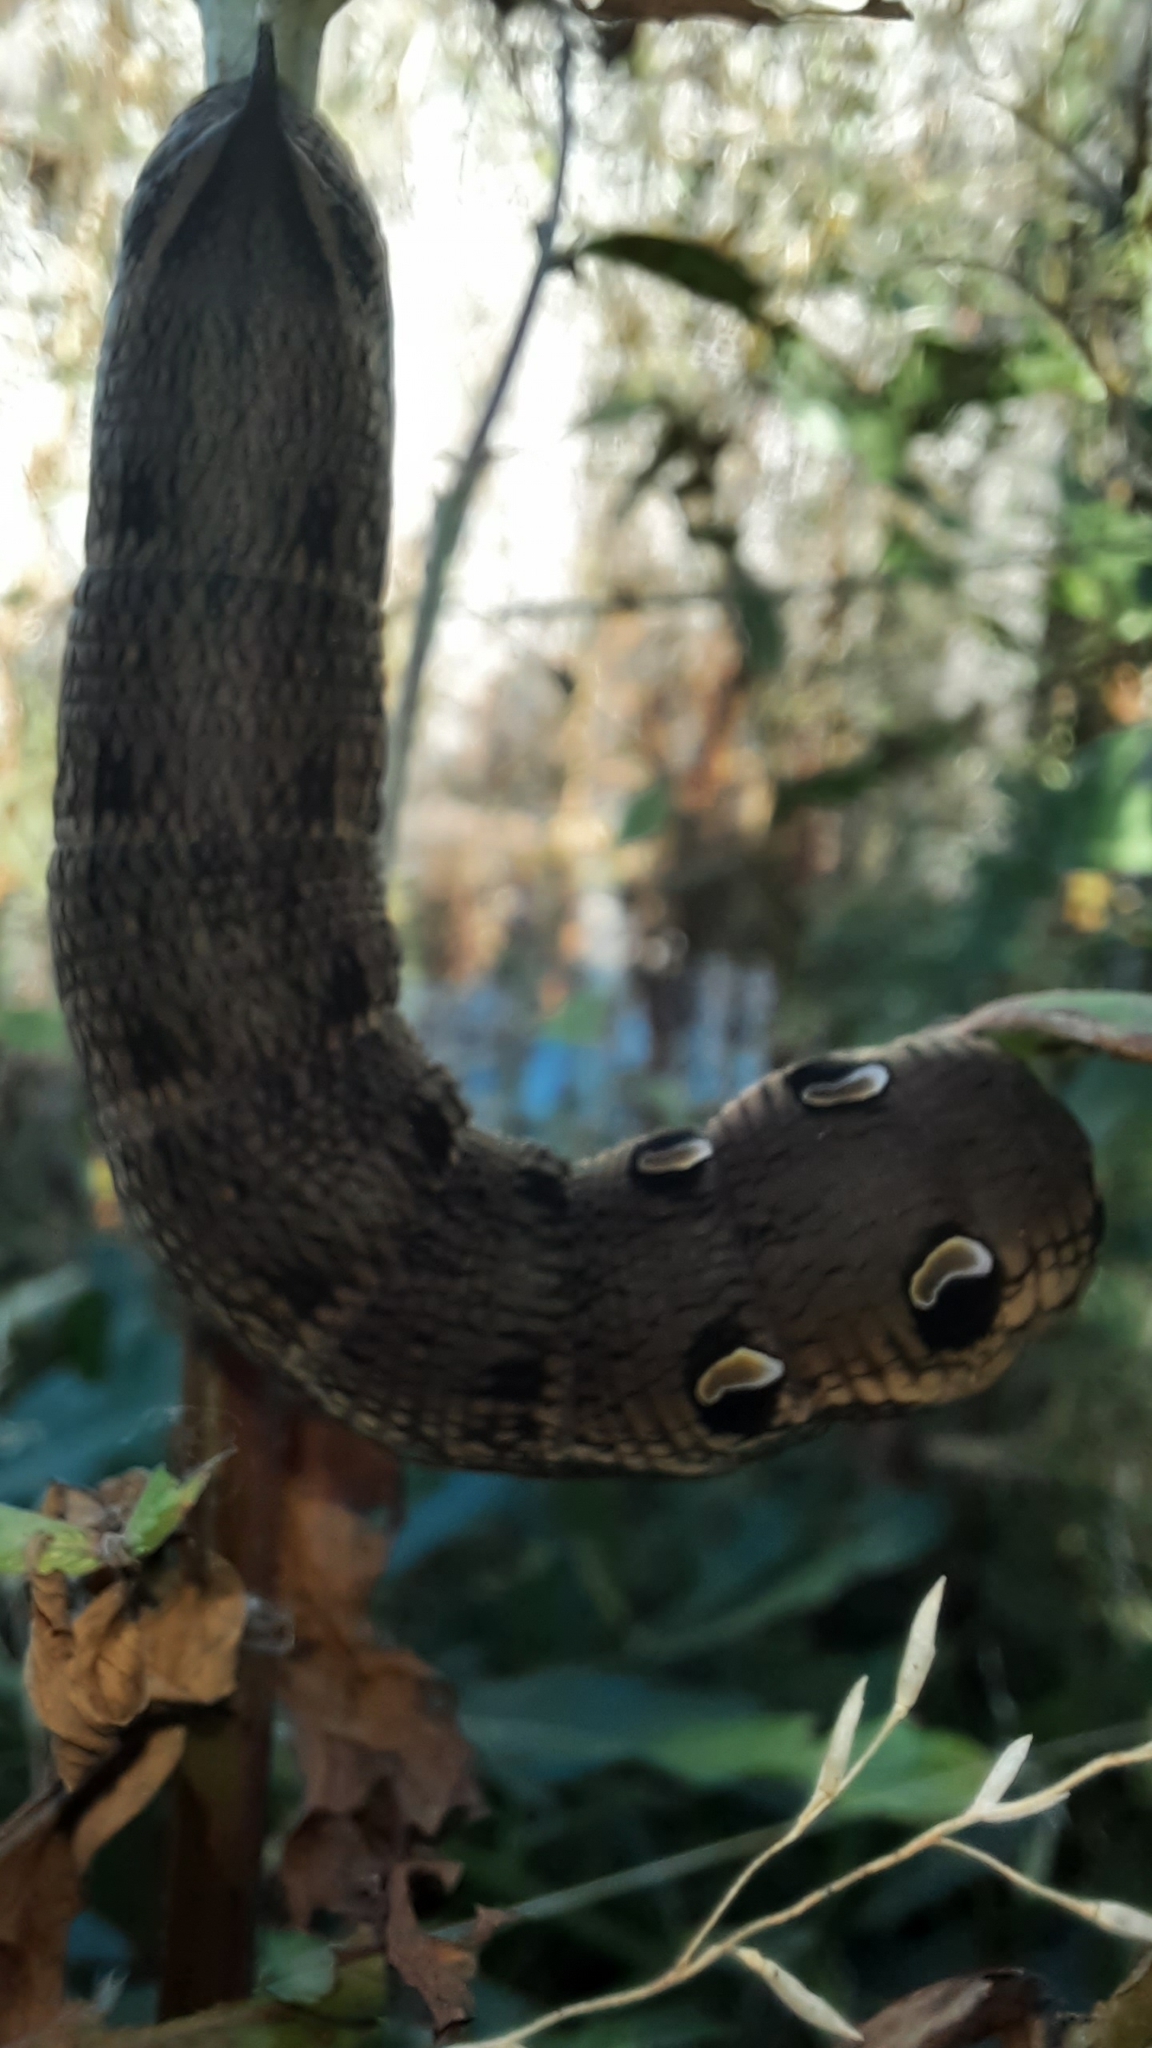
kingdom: Animalia
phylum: Arthropoda
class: Insecta
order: Lepidoptera
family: Sphingidae
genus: Deilephila
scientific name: Deilephila elpenor
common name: Elephant hawk-moth
